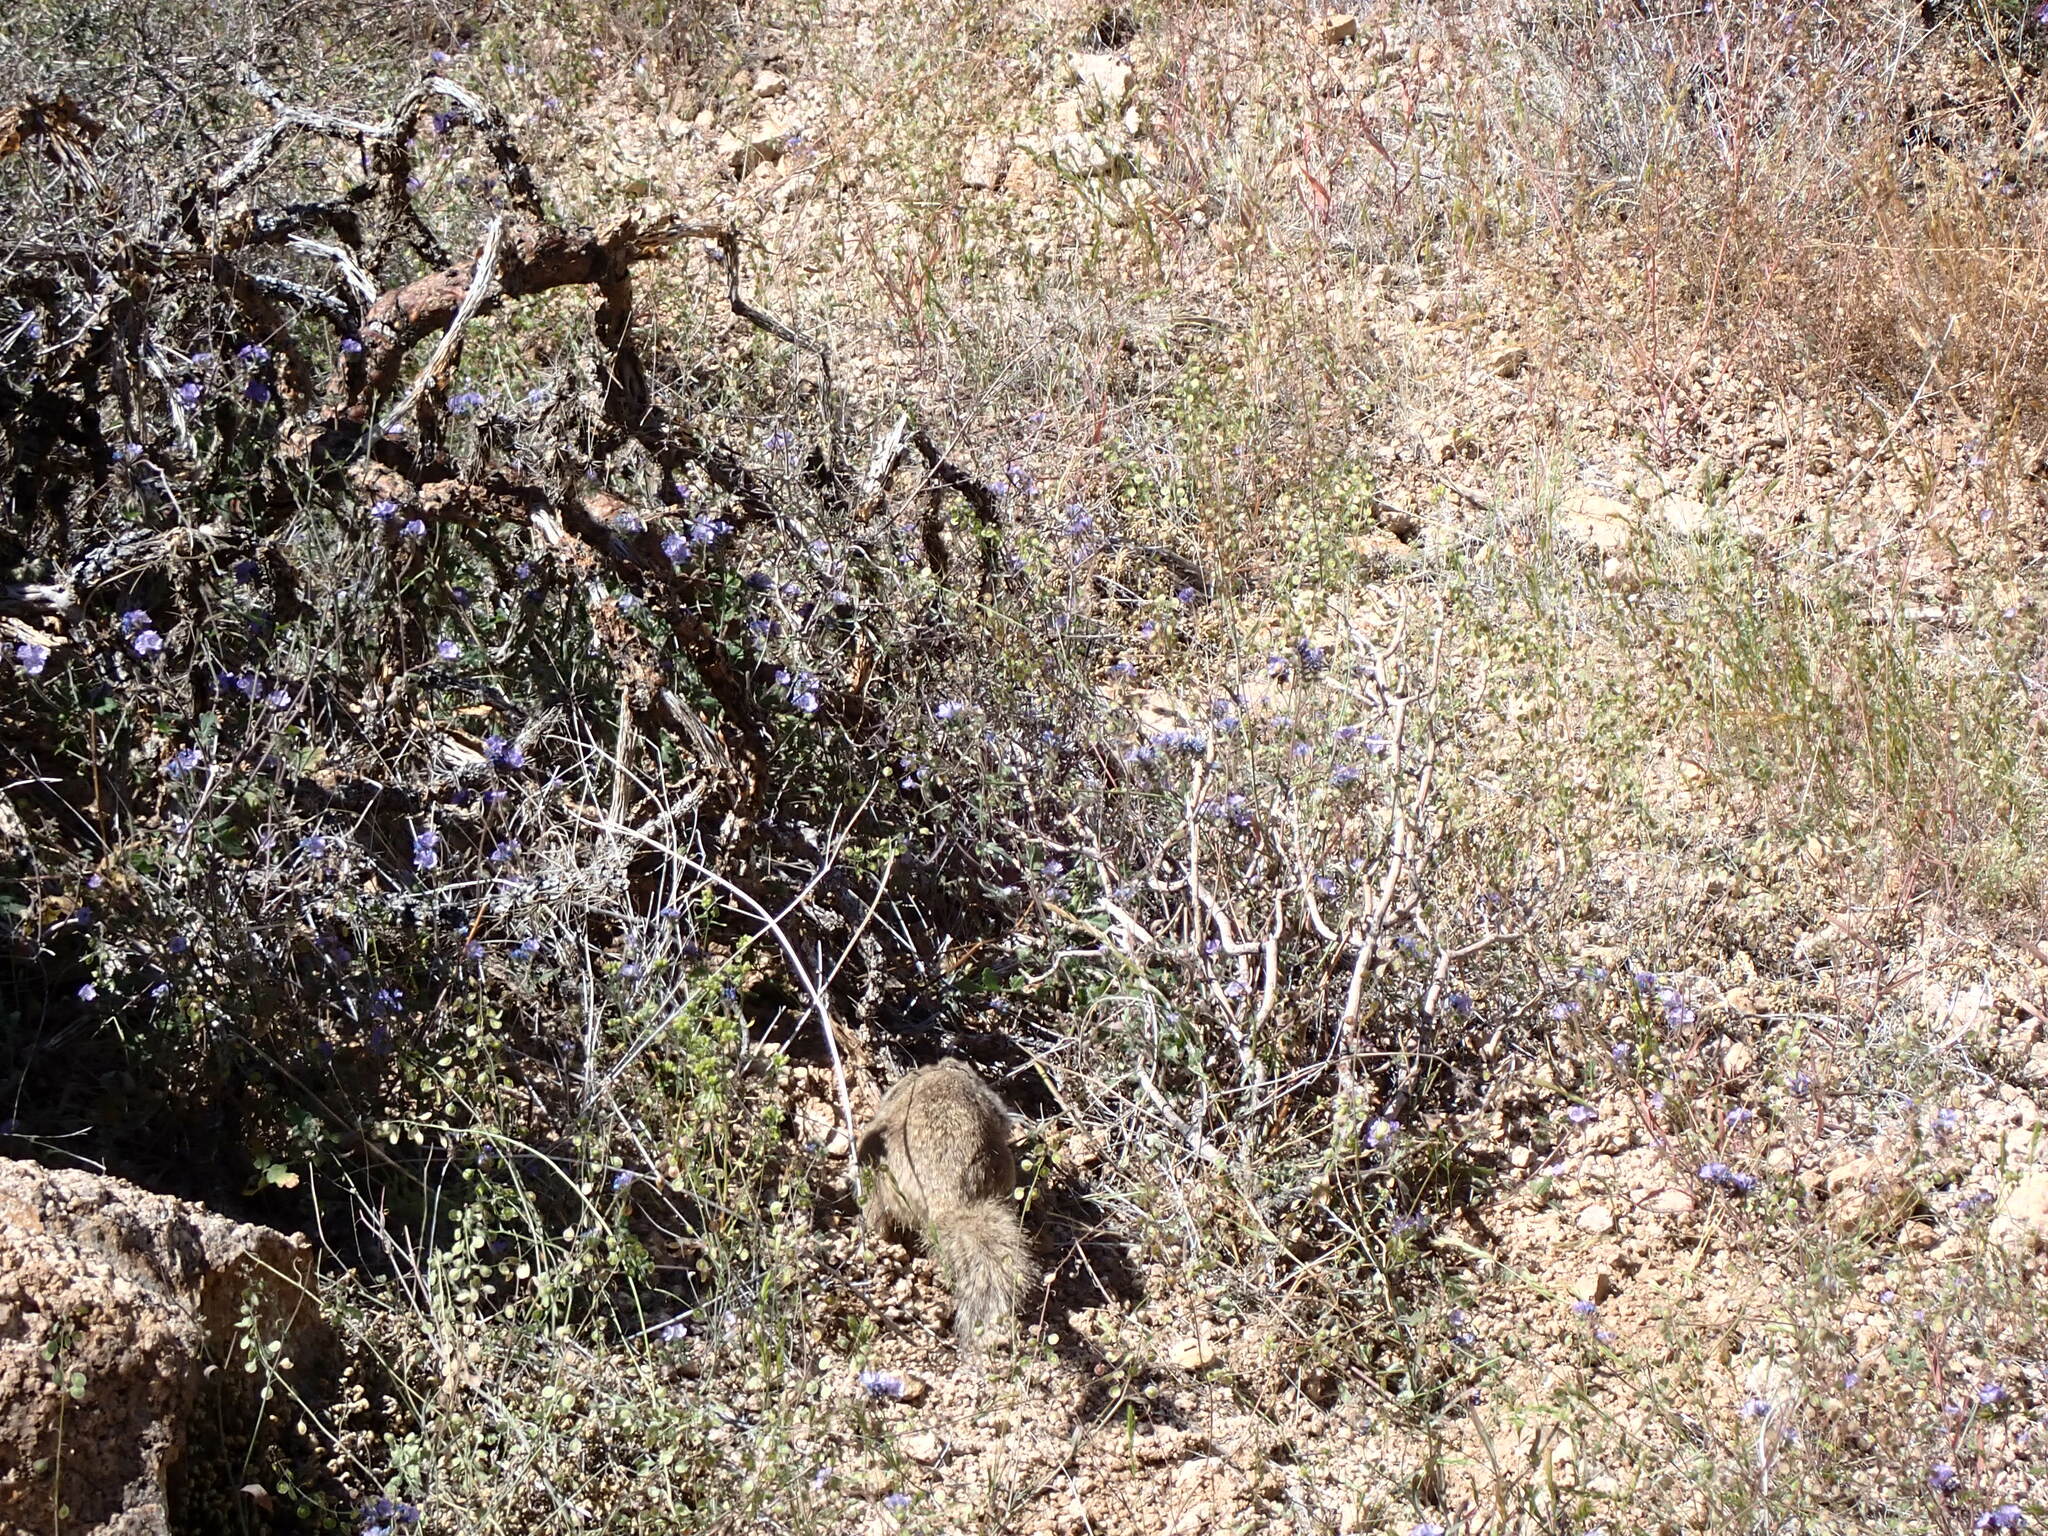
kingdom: Animalia
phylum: Chordata
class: Mammalia
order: Rodentia
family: Sciuridae
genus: Otospermophilus
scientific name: Otospermophilus variegatus
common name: Rock squirrel
